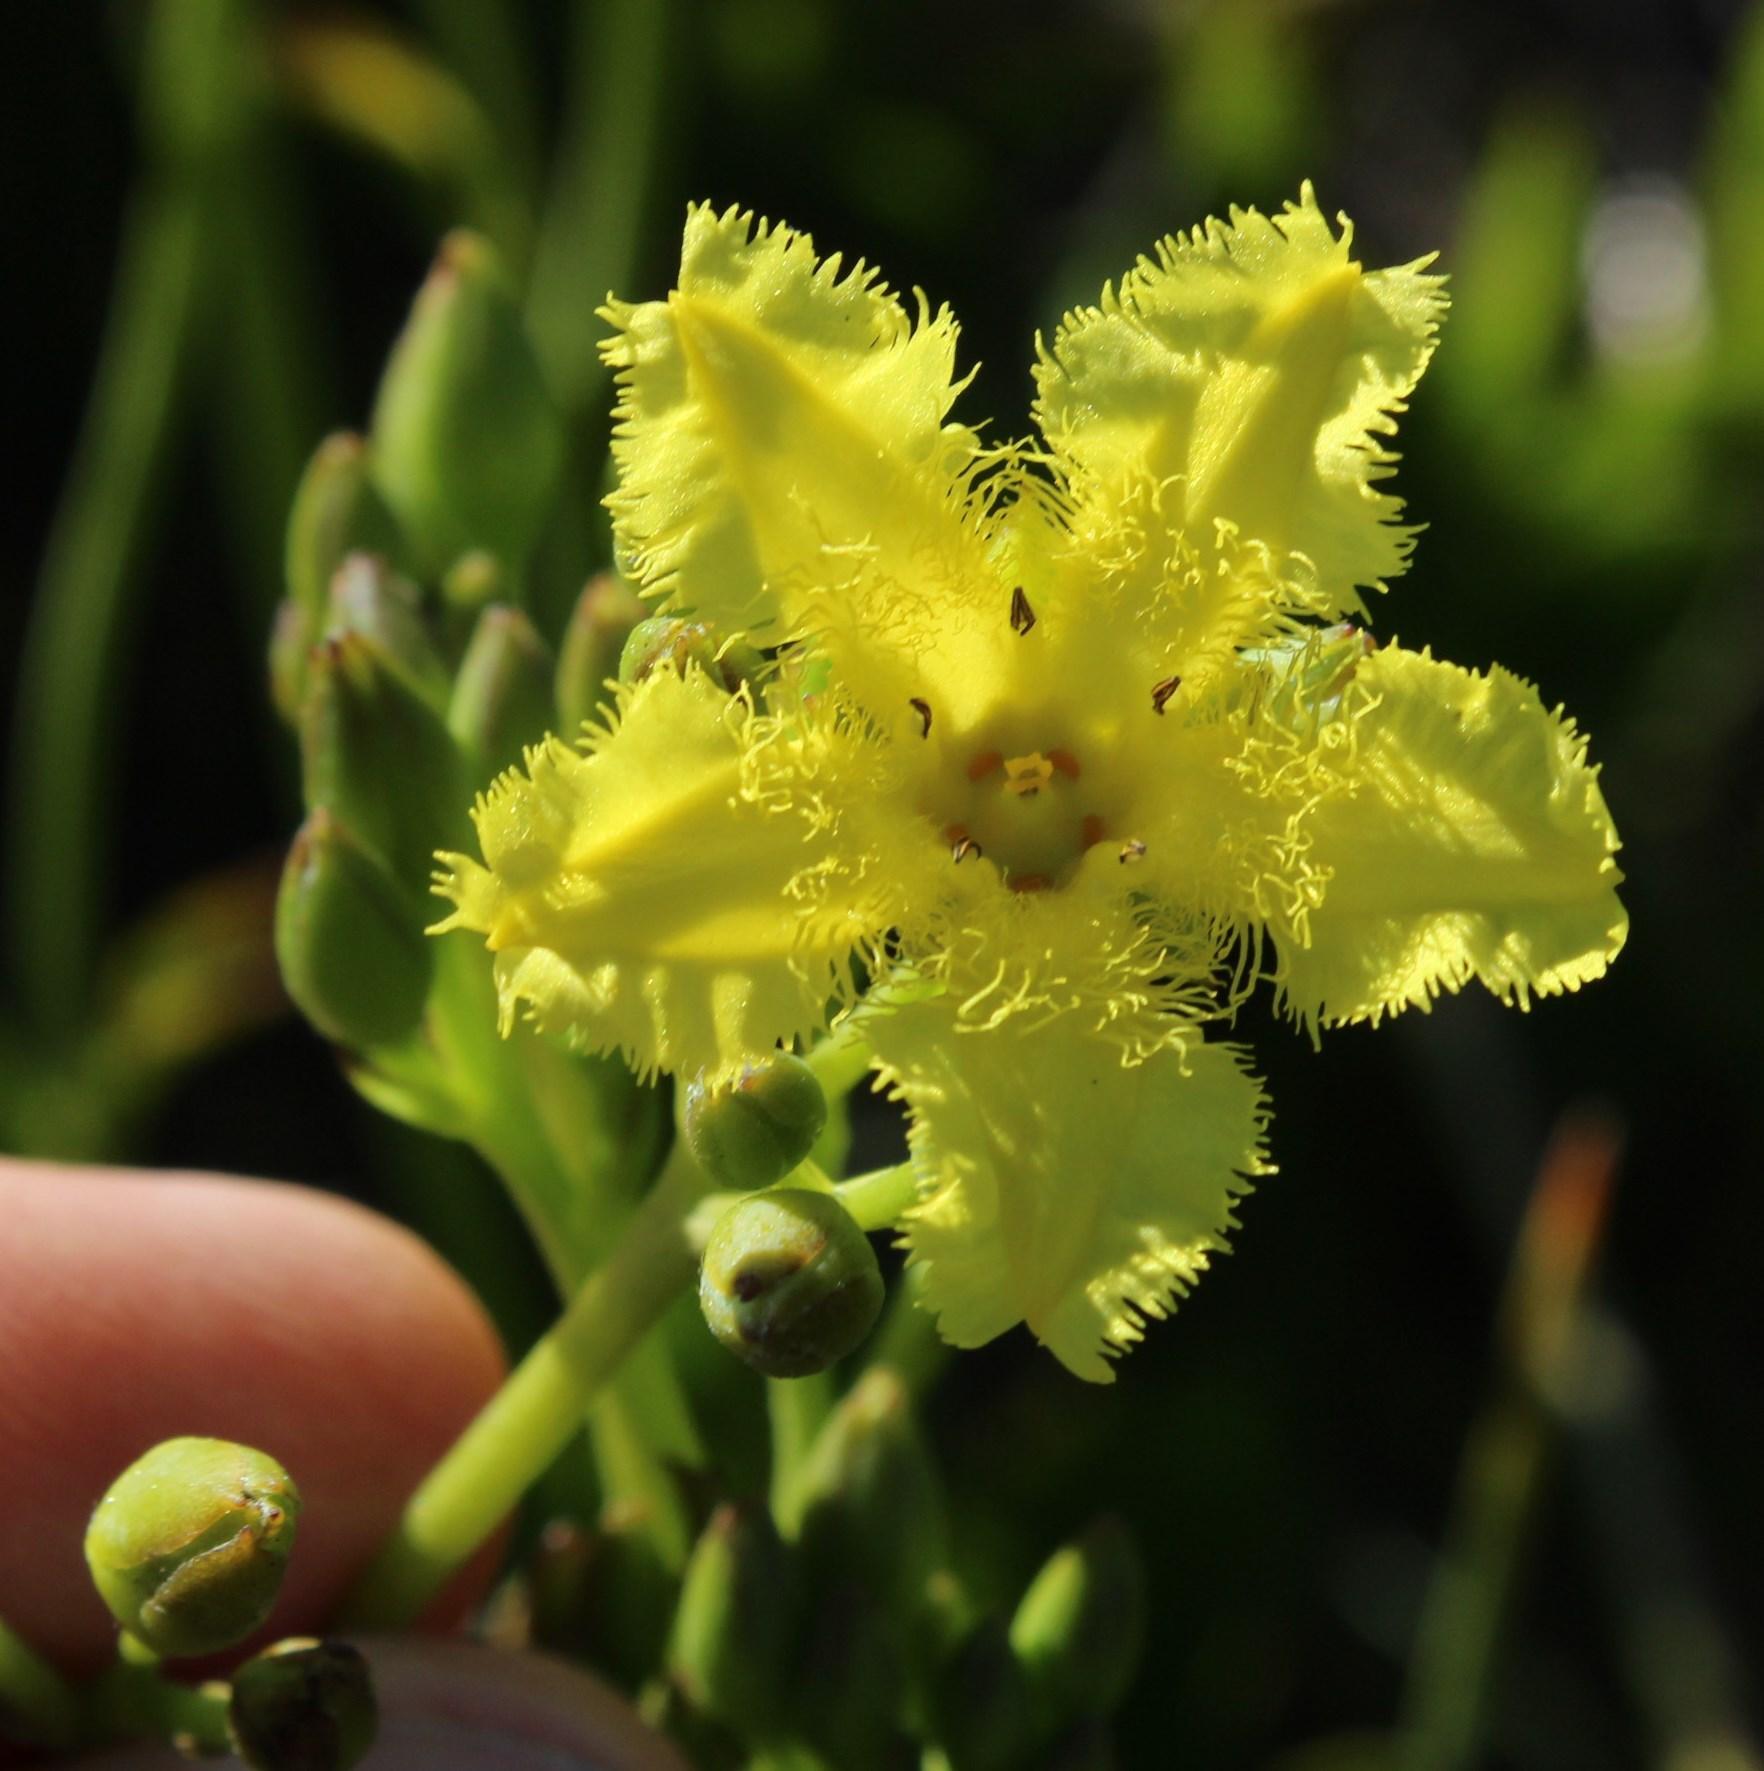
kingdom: Plantae
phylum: Tracheophyta
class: Magnoliopsida
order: Asterales
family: Menyanthaceae
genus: Villarsia
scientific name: Villarsia goldblattiana
